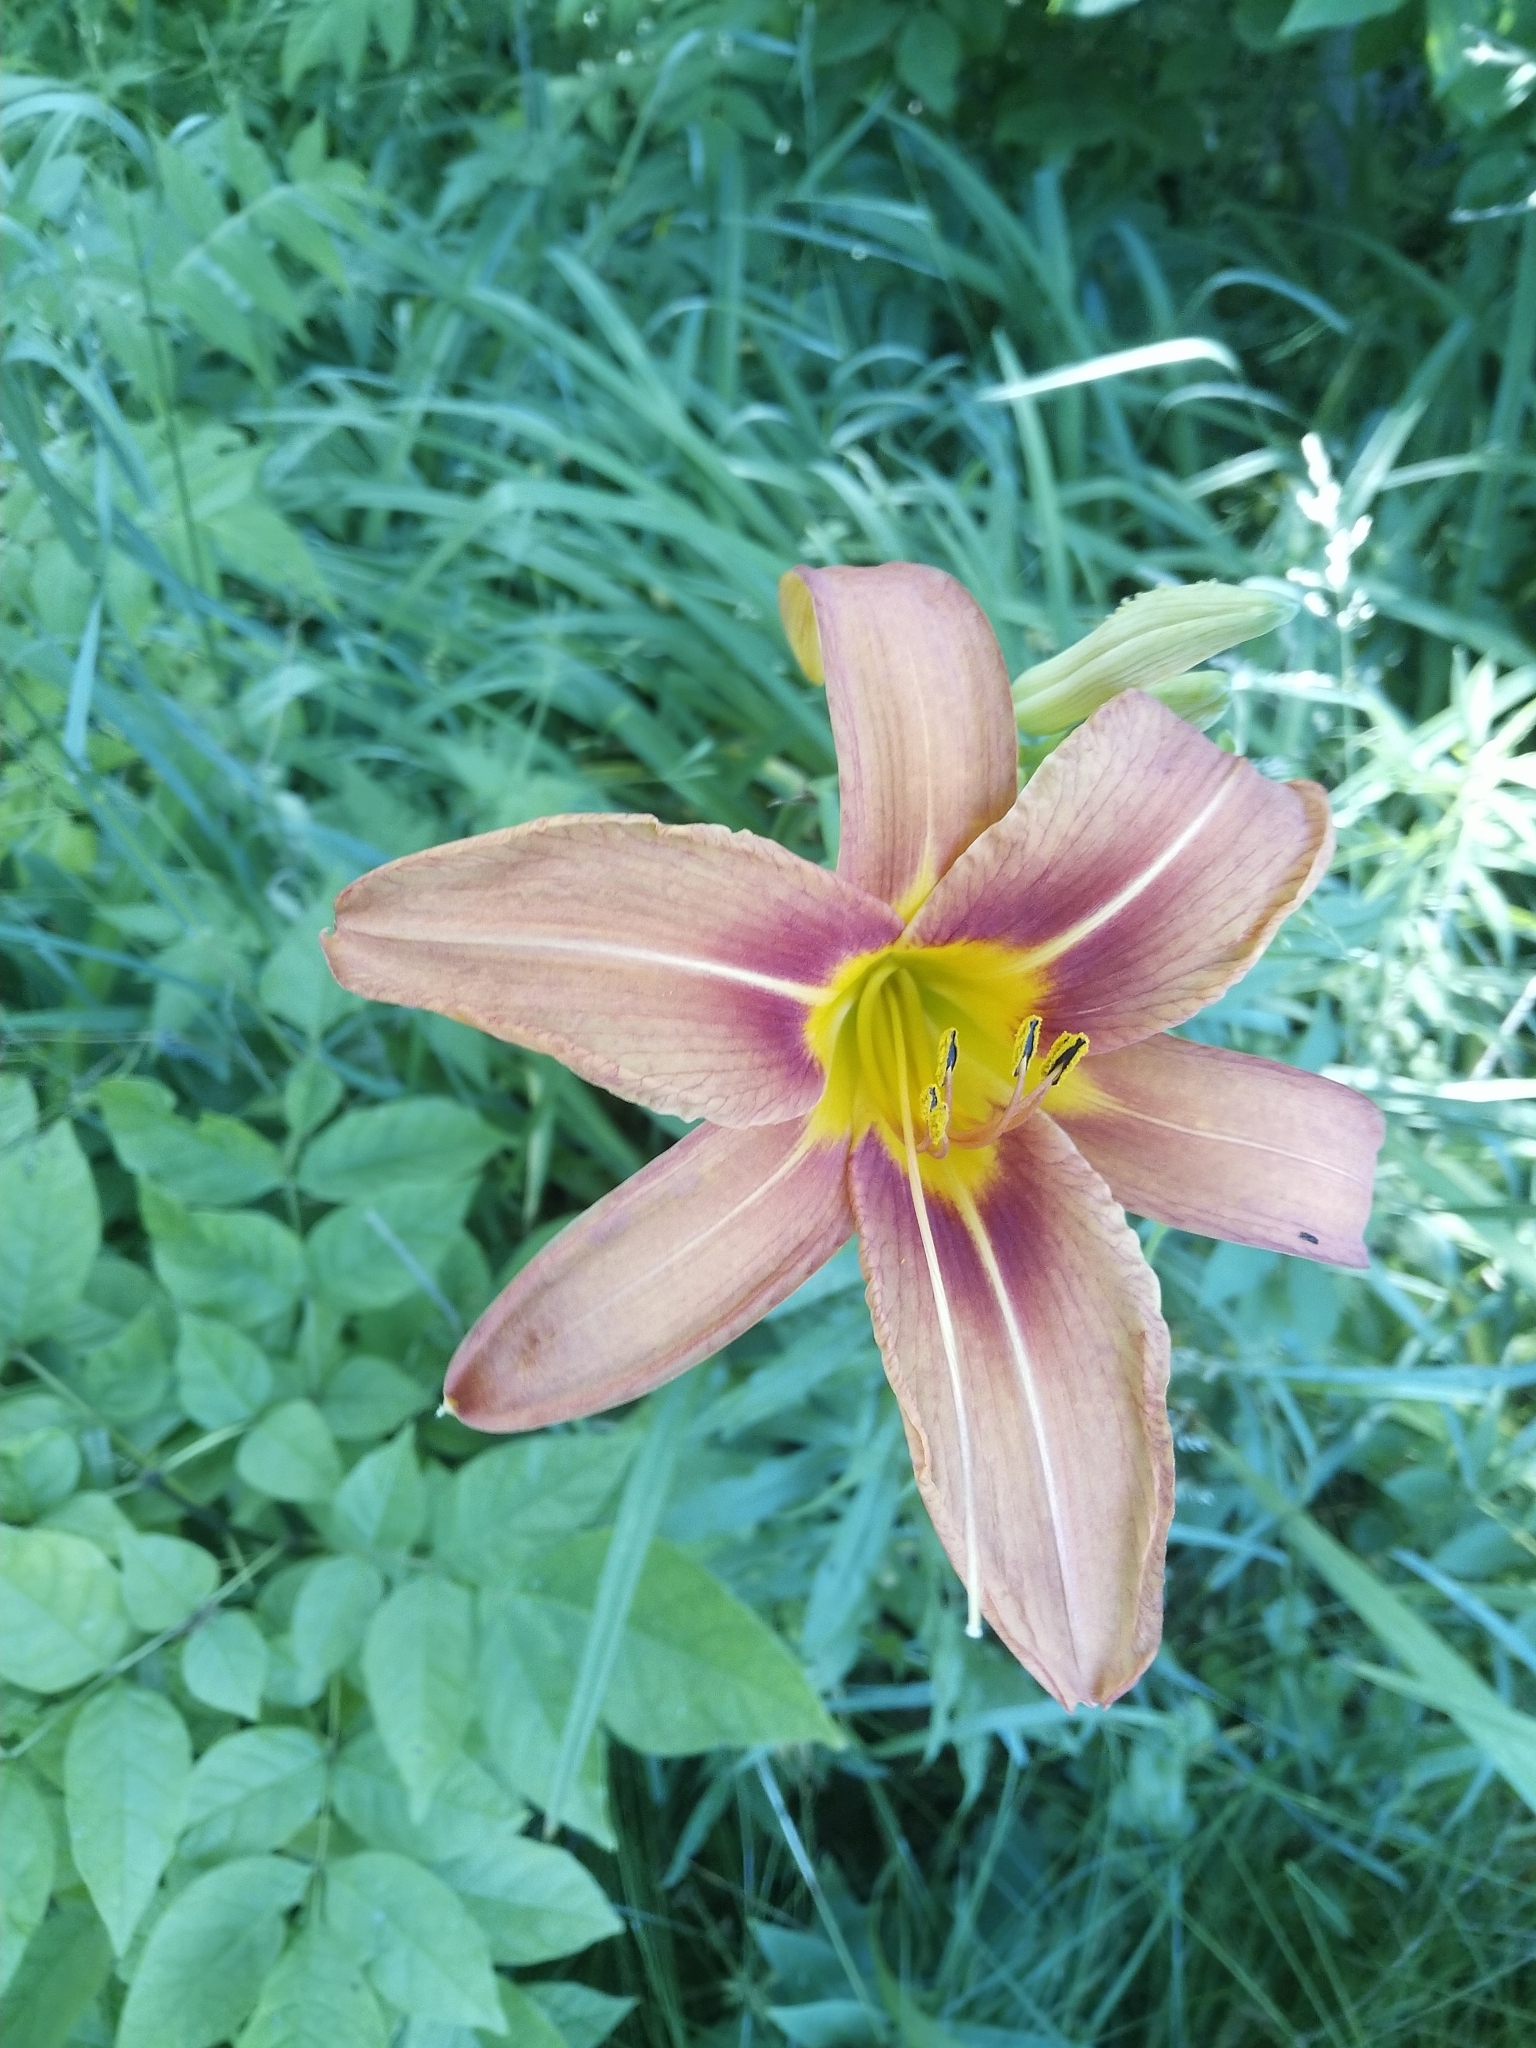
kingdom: Plantae
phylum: Tracheophyta
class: Liliopsida
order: Asparagales
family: Asphodelaceae
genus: Hemerocallis
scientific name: Hemerocallis fulva
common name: Orange day-lily
